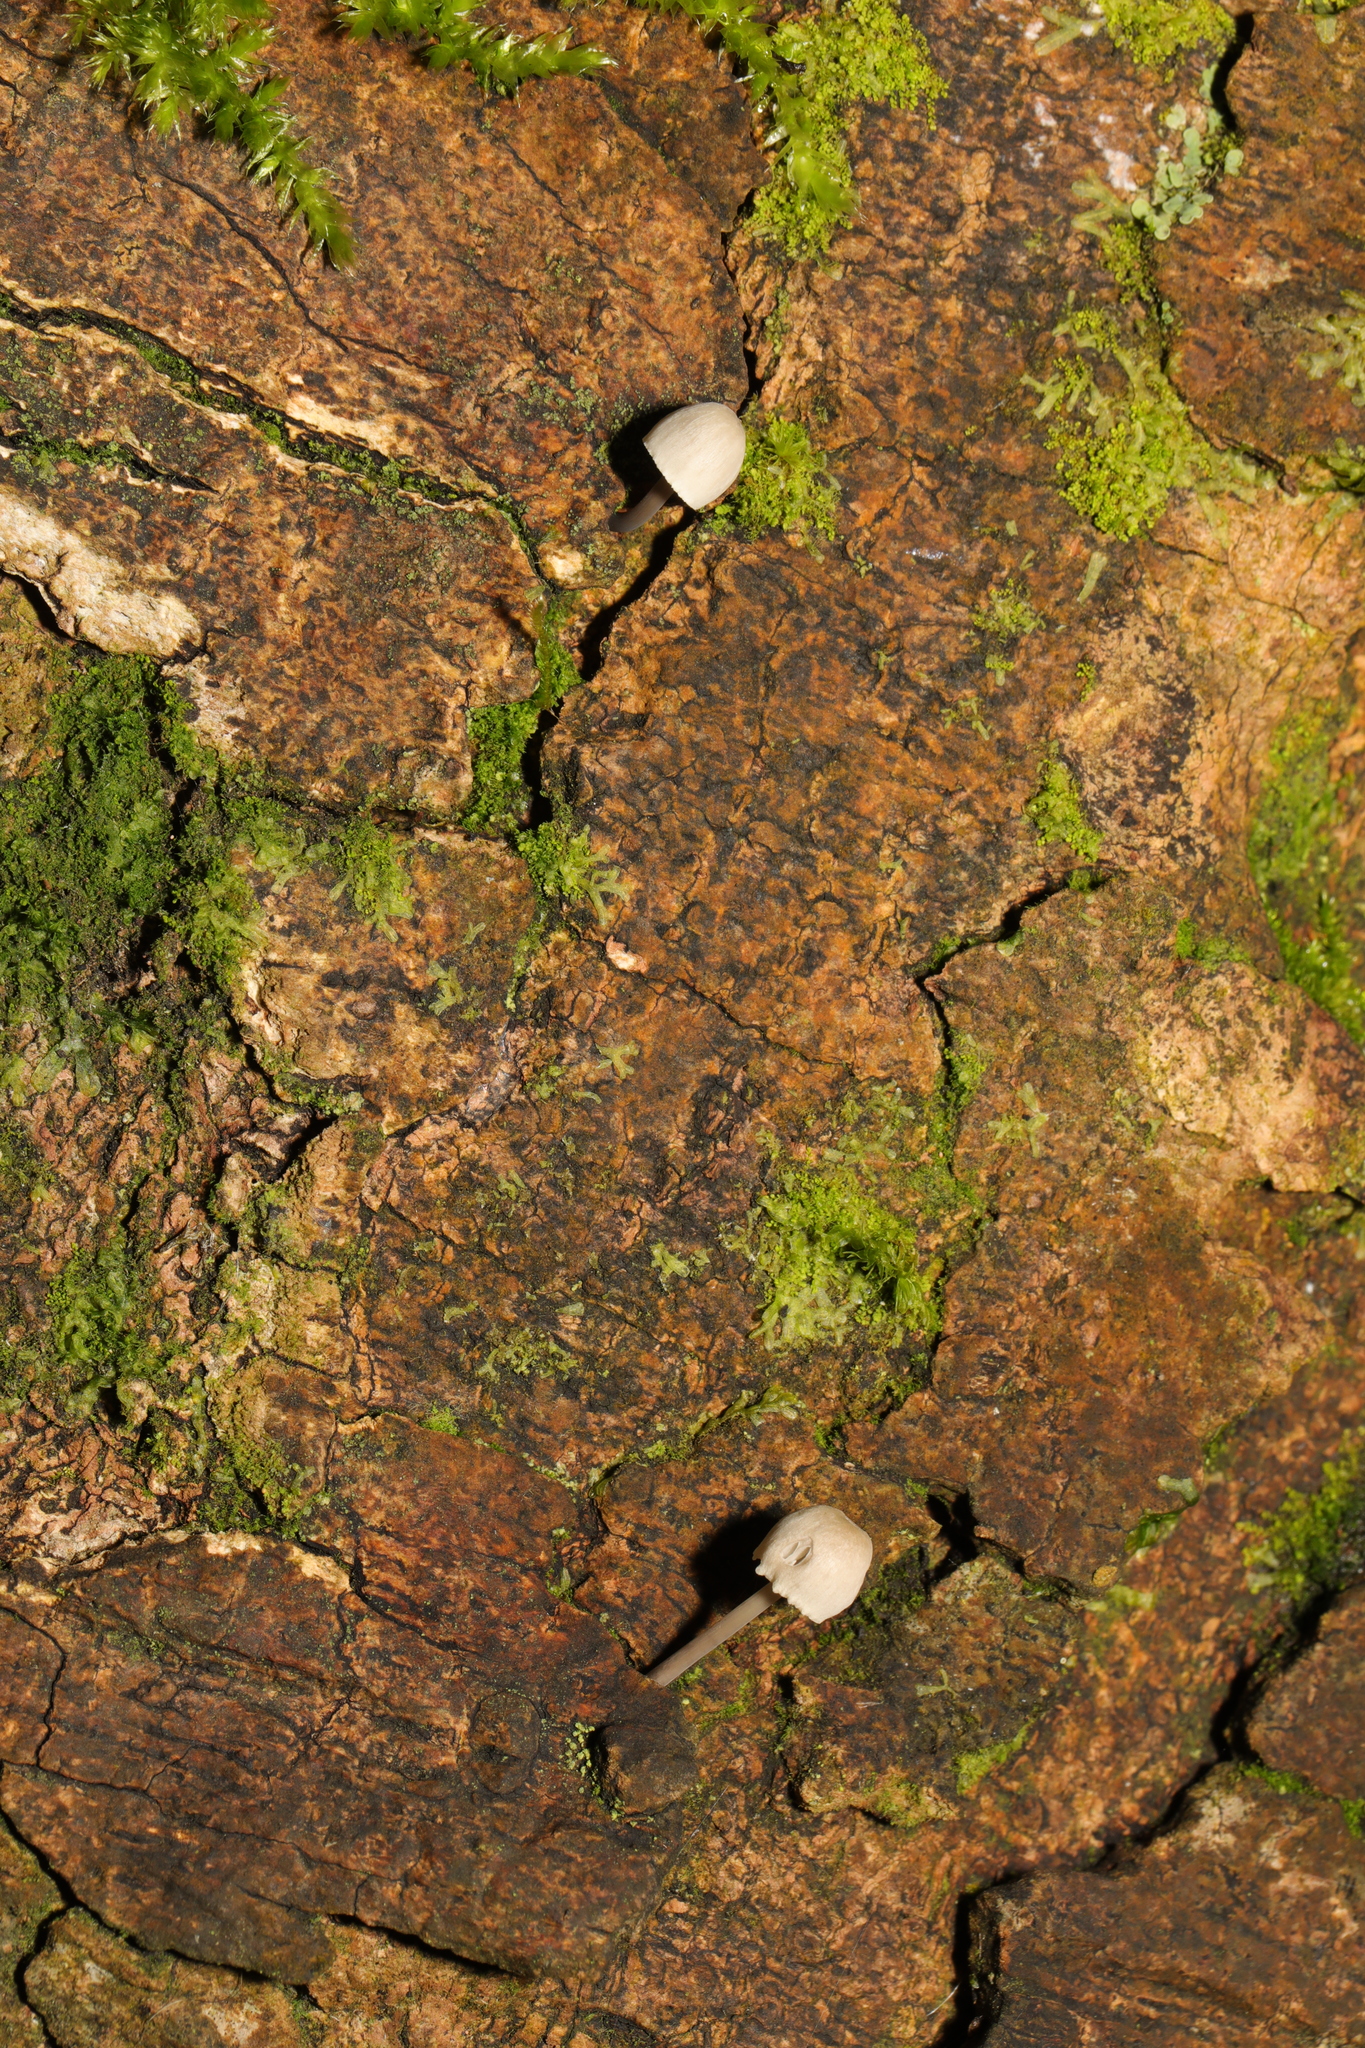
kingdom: Fungi
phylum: Basidiomycota
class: Agaricomycetes
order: Agaricales
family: Mycenaceae
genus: Mycena
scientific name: Mycena
